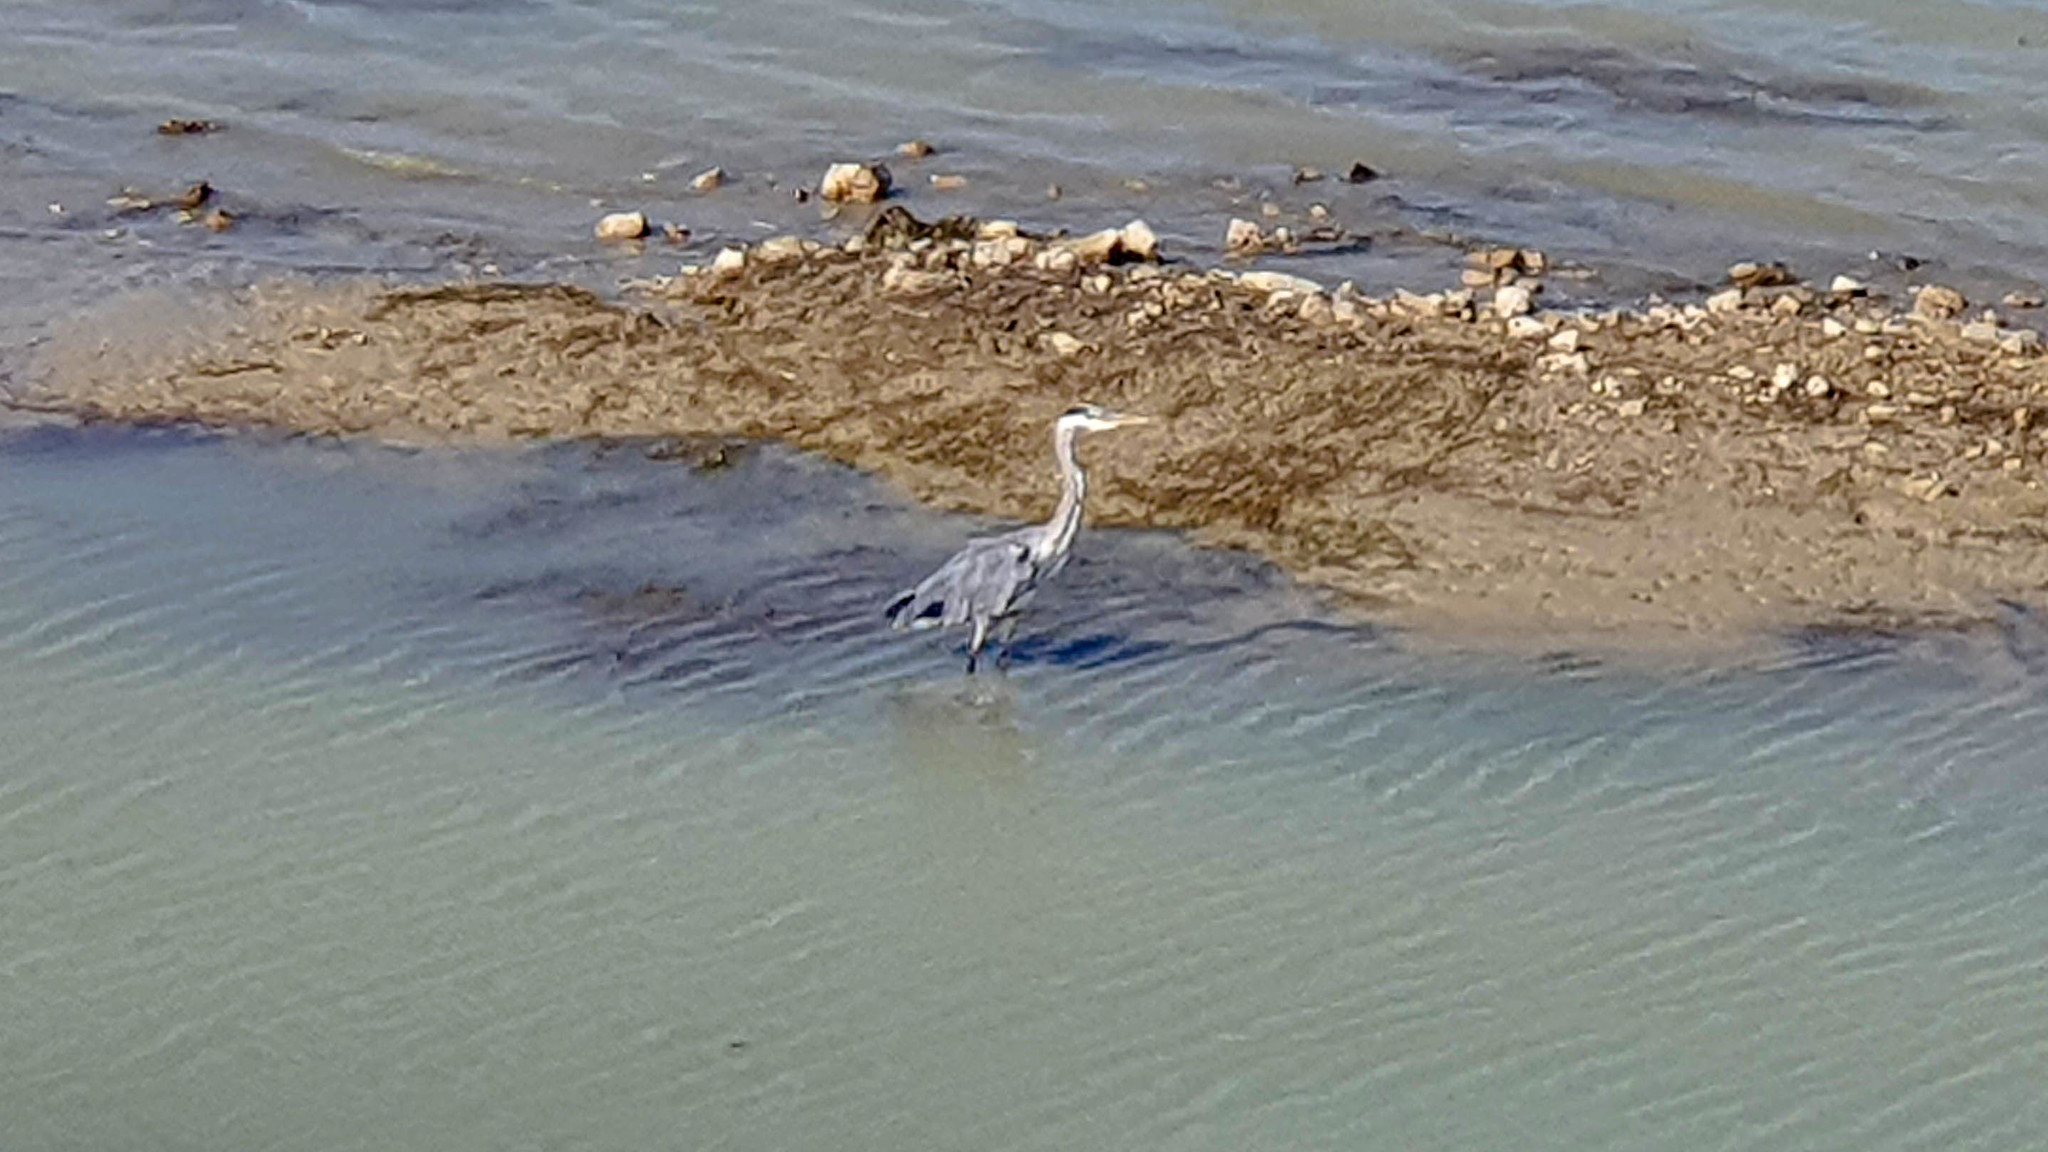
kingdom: Animalia
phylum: Chordata
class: Aves
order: Pelecaniformes
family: Ardeidae
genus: Ardea
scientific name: Ardea cinerea
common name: Grey heron
